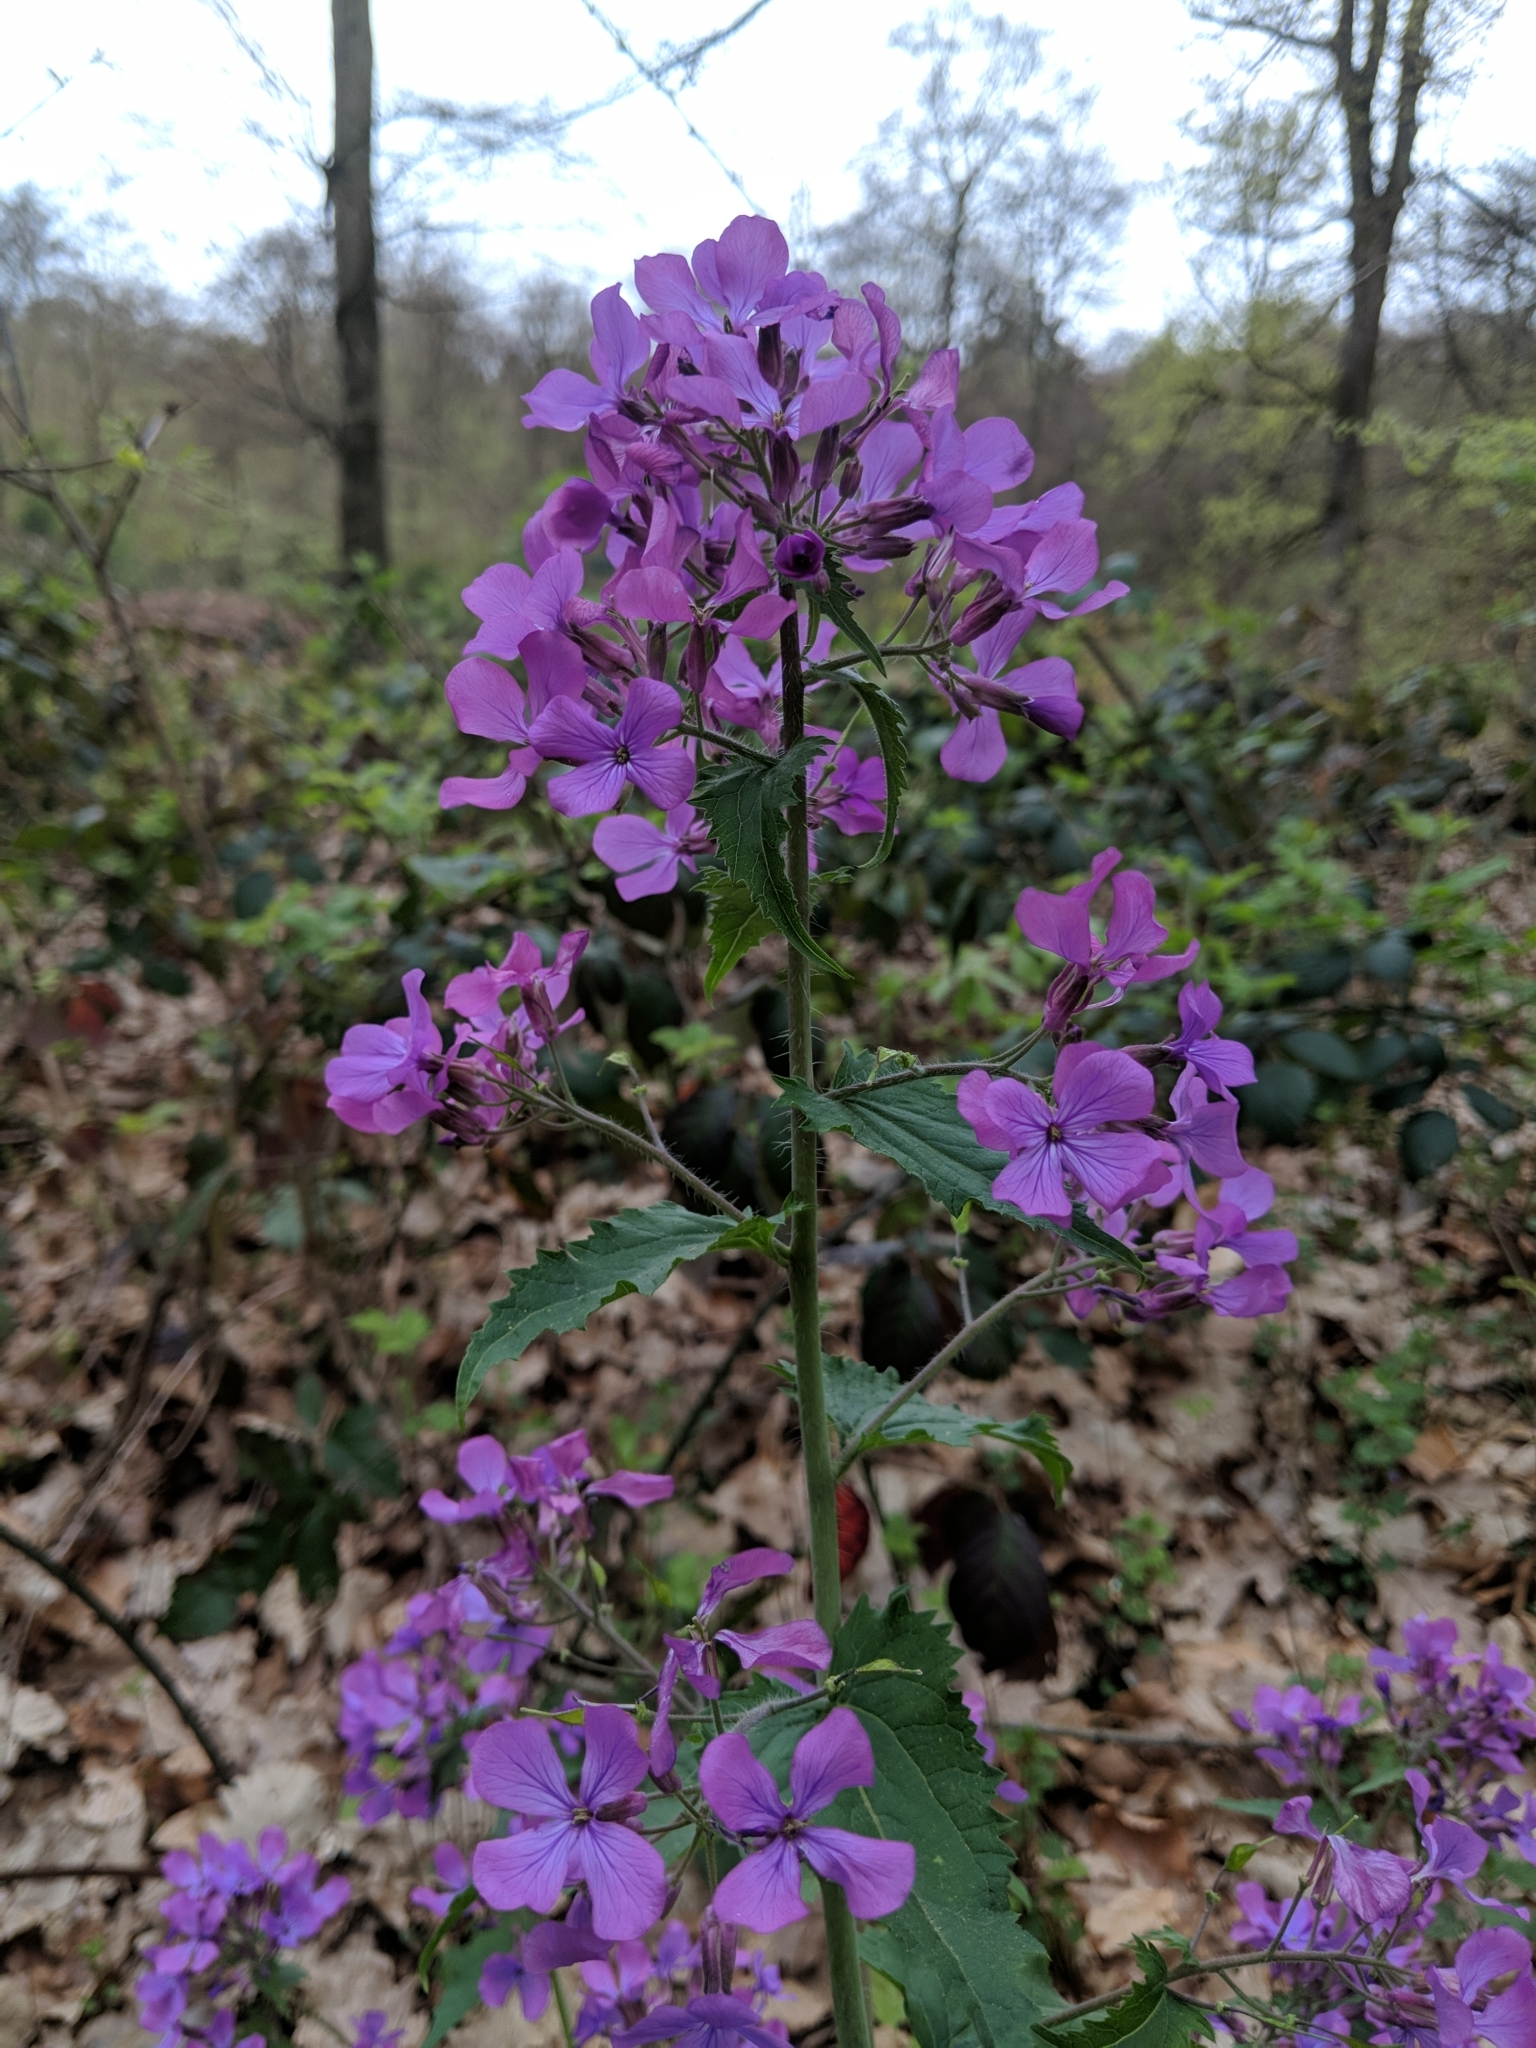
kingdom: Plantae
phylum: Tracheophyta
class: Magnoliopsida
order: Brassicales
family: Brassicaceae
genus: Lunaria
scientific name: Lunaria annua
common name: Honesty
